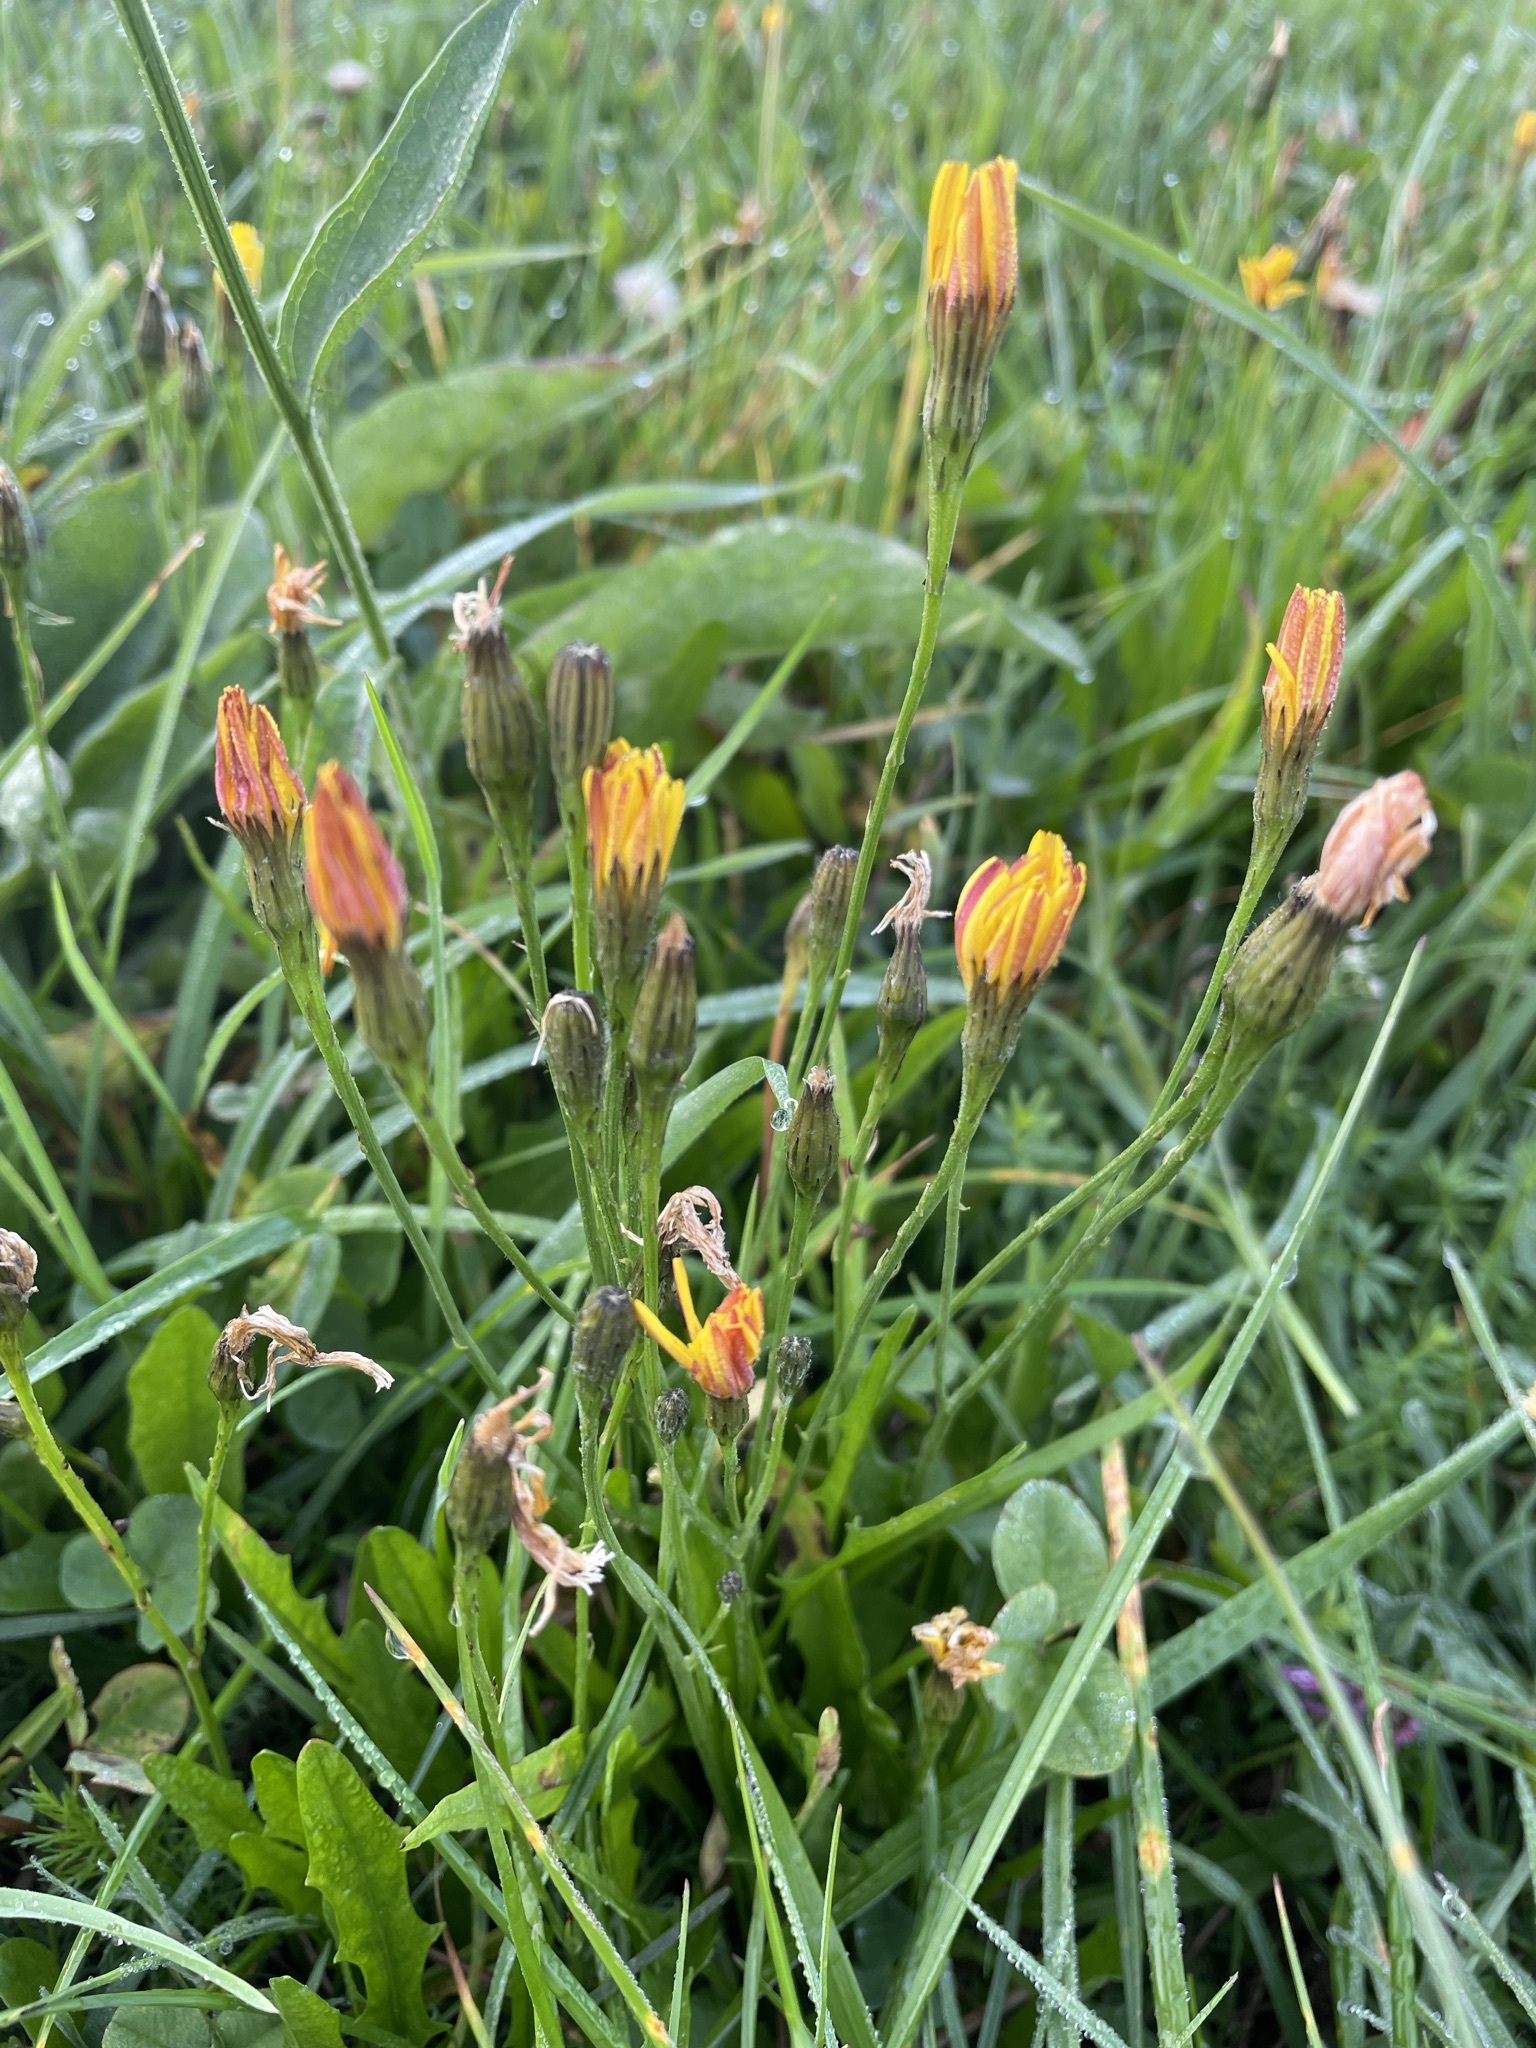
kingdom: Plantae
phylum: Tracheophyta
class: Magnoliopsida
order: Asterales
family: Asteraceae
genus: Scorzoneroides
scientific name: Scorzoneroides autumnalis
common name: Autumn hawkbit
